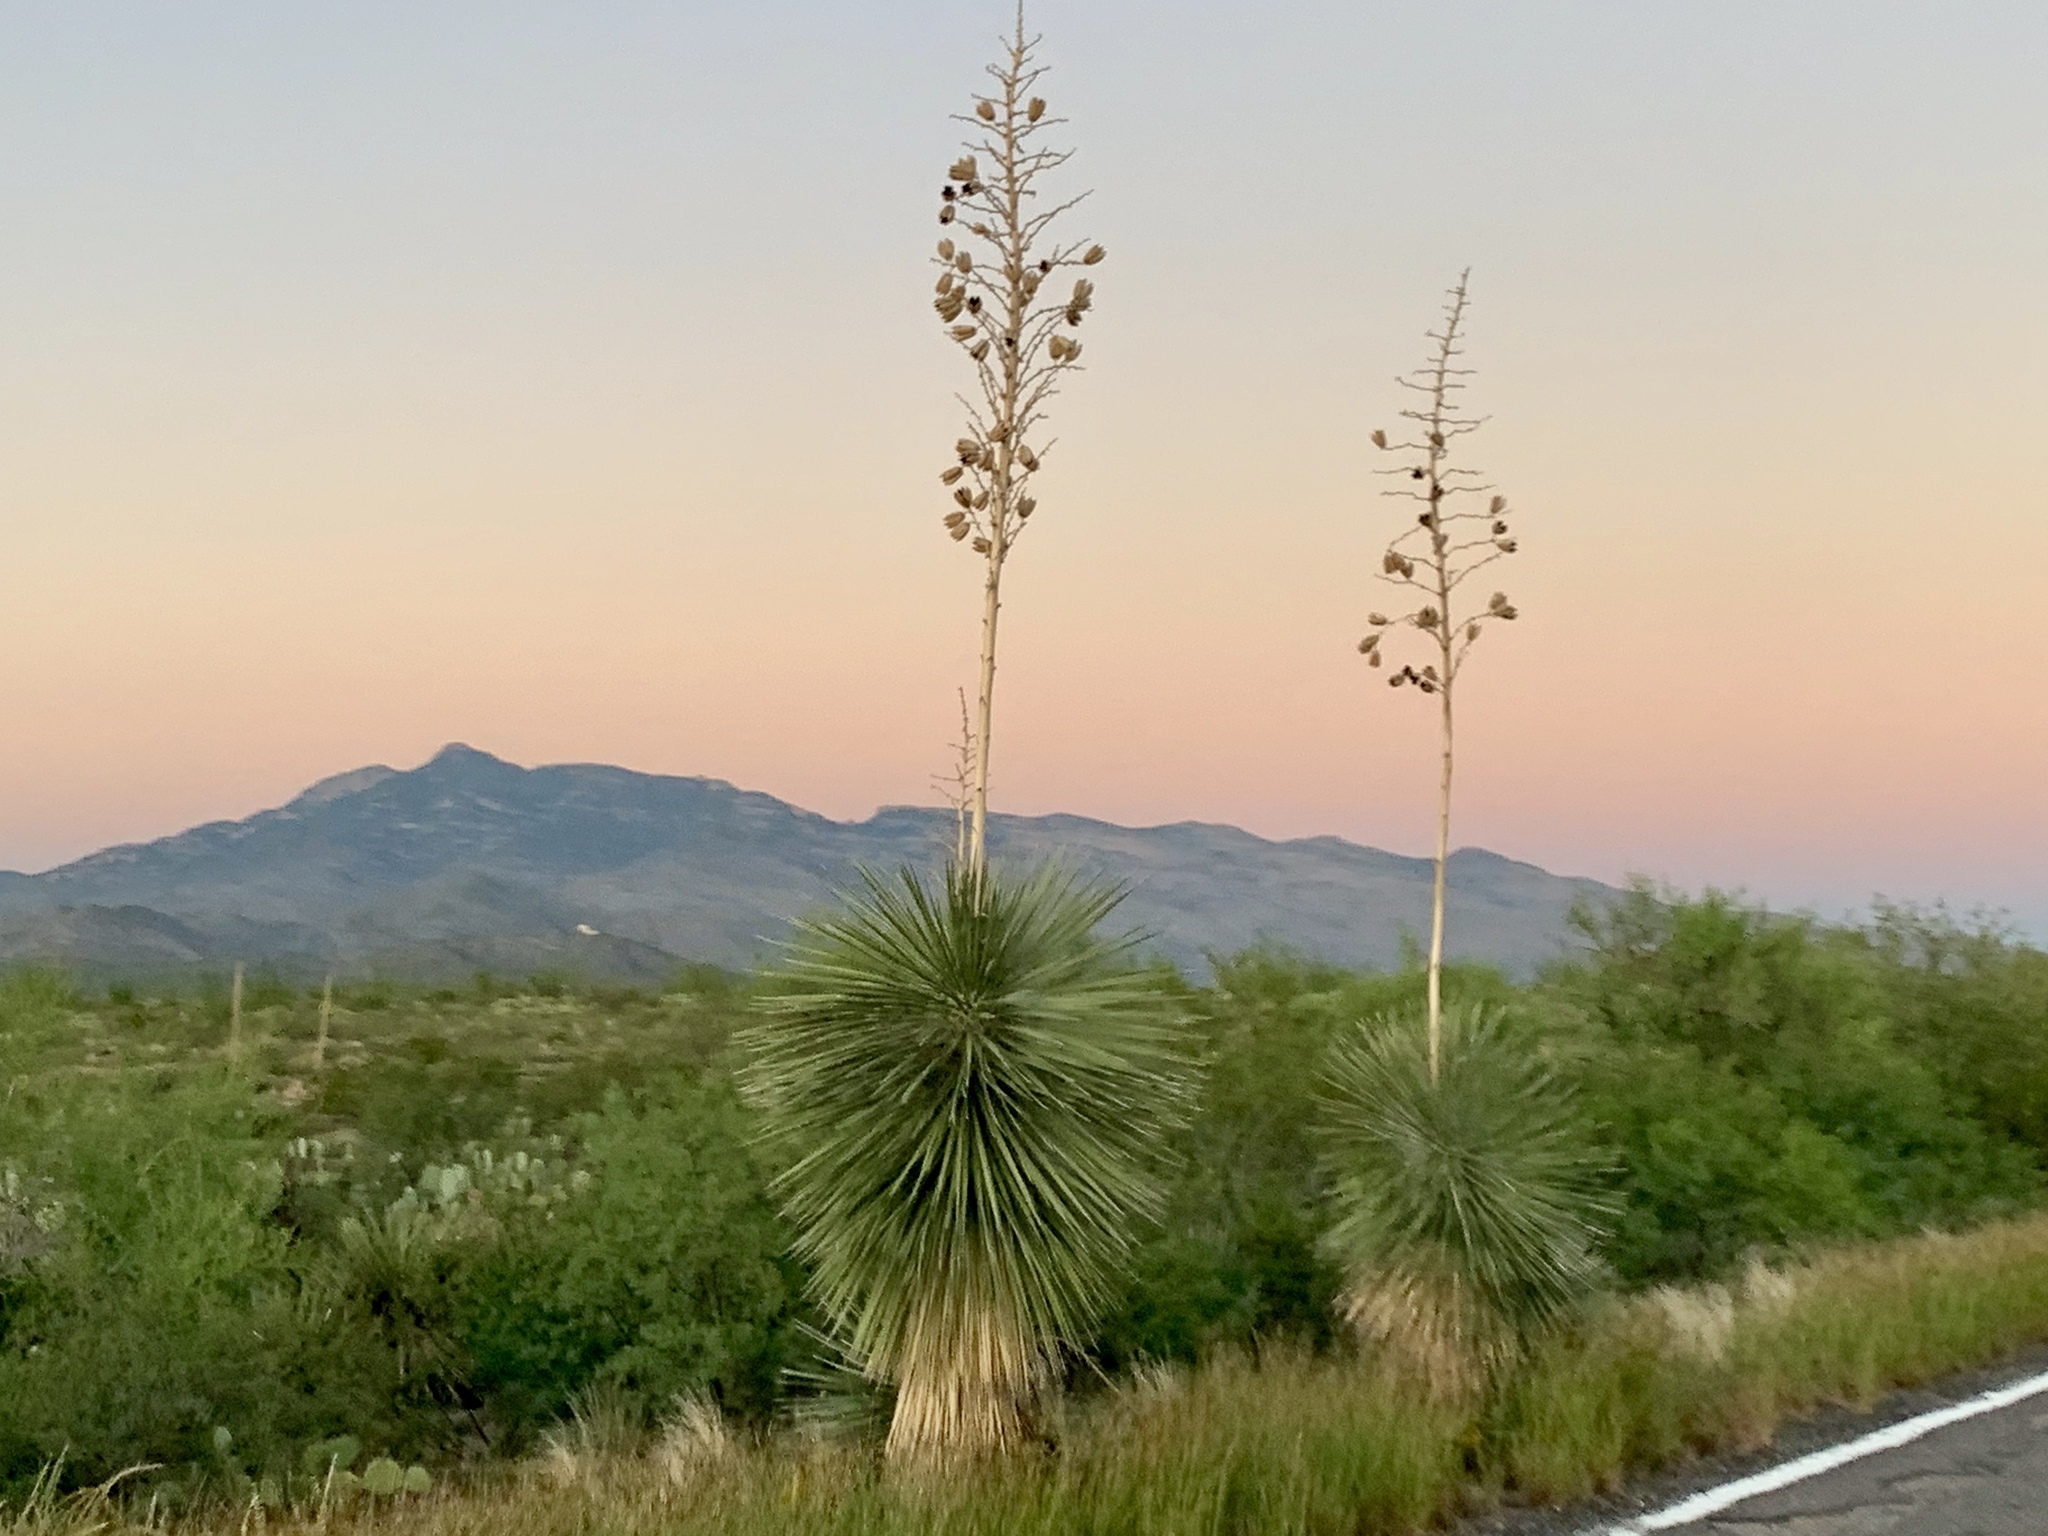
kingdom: Plantae
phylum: Tracheophyta
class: Liliopsida
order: Asparagales
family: Asparagaceae
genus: Yucca
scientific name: Yucca elata
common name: Palmella
